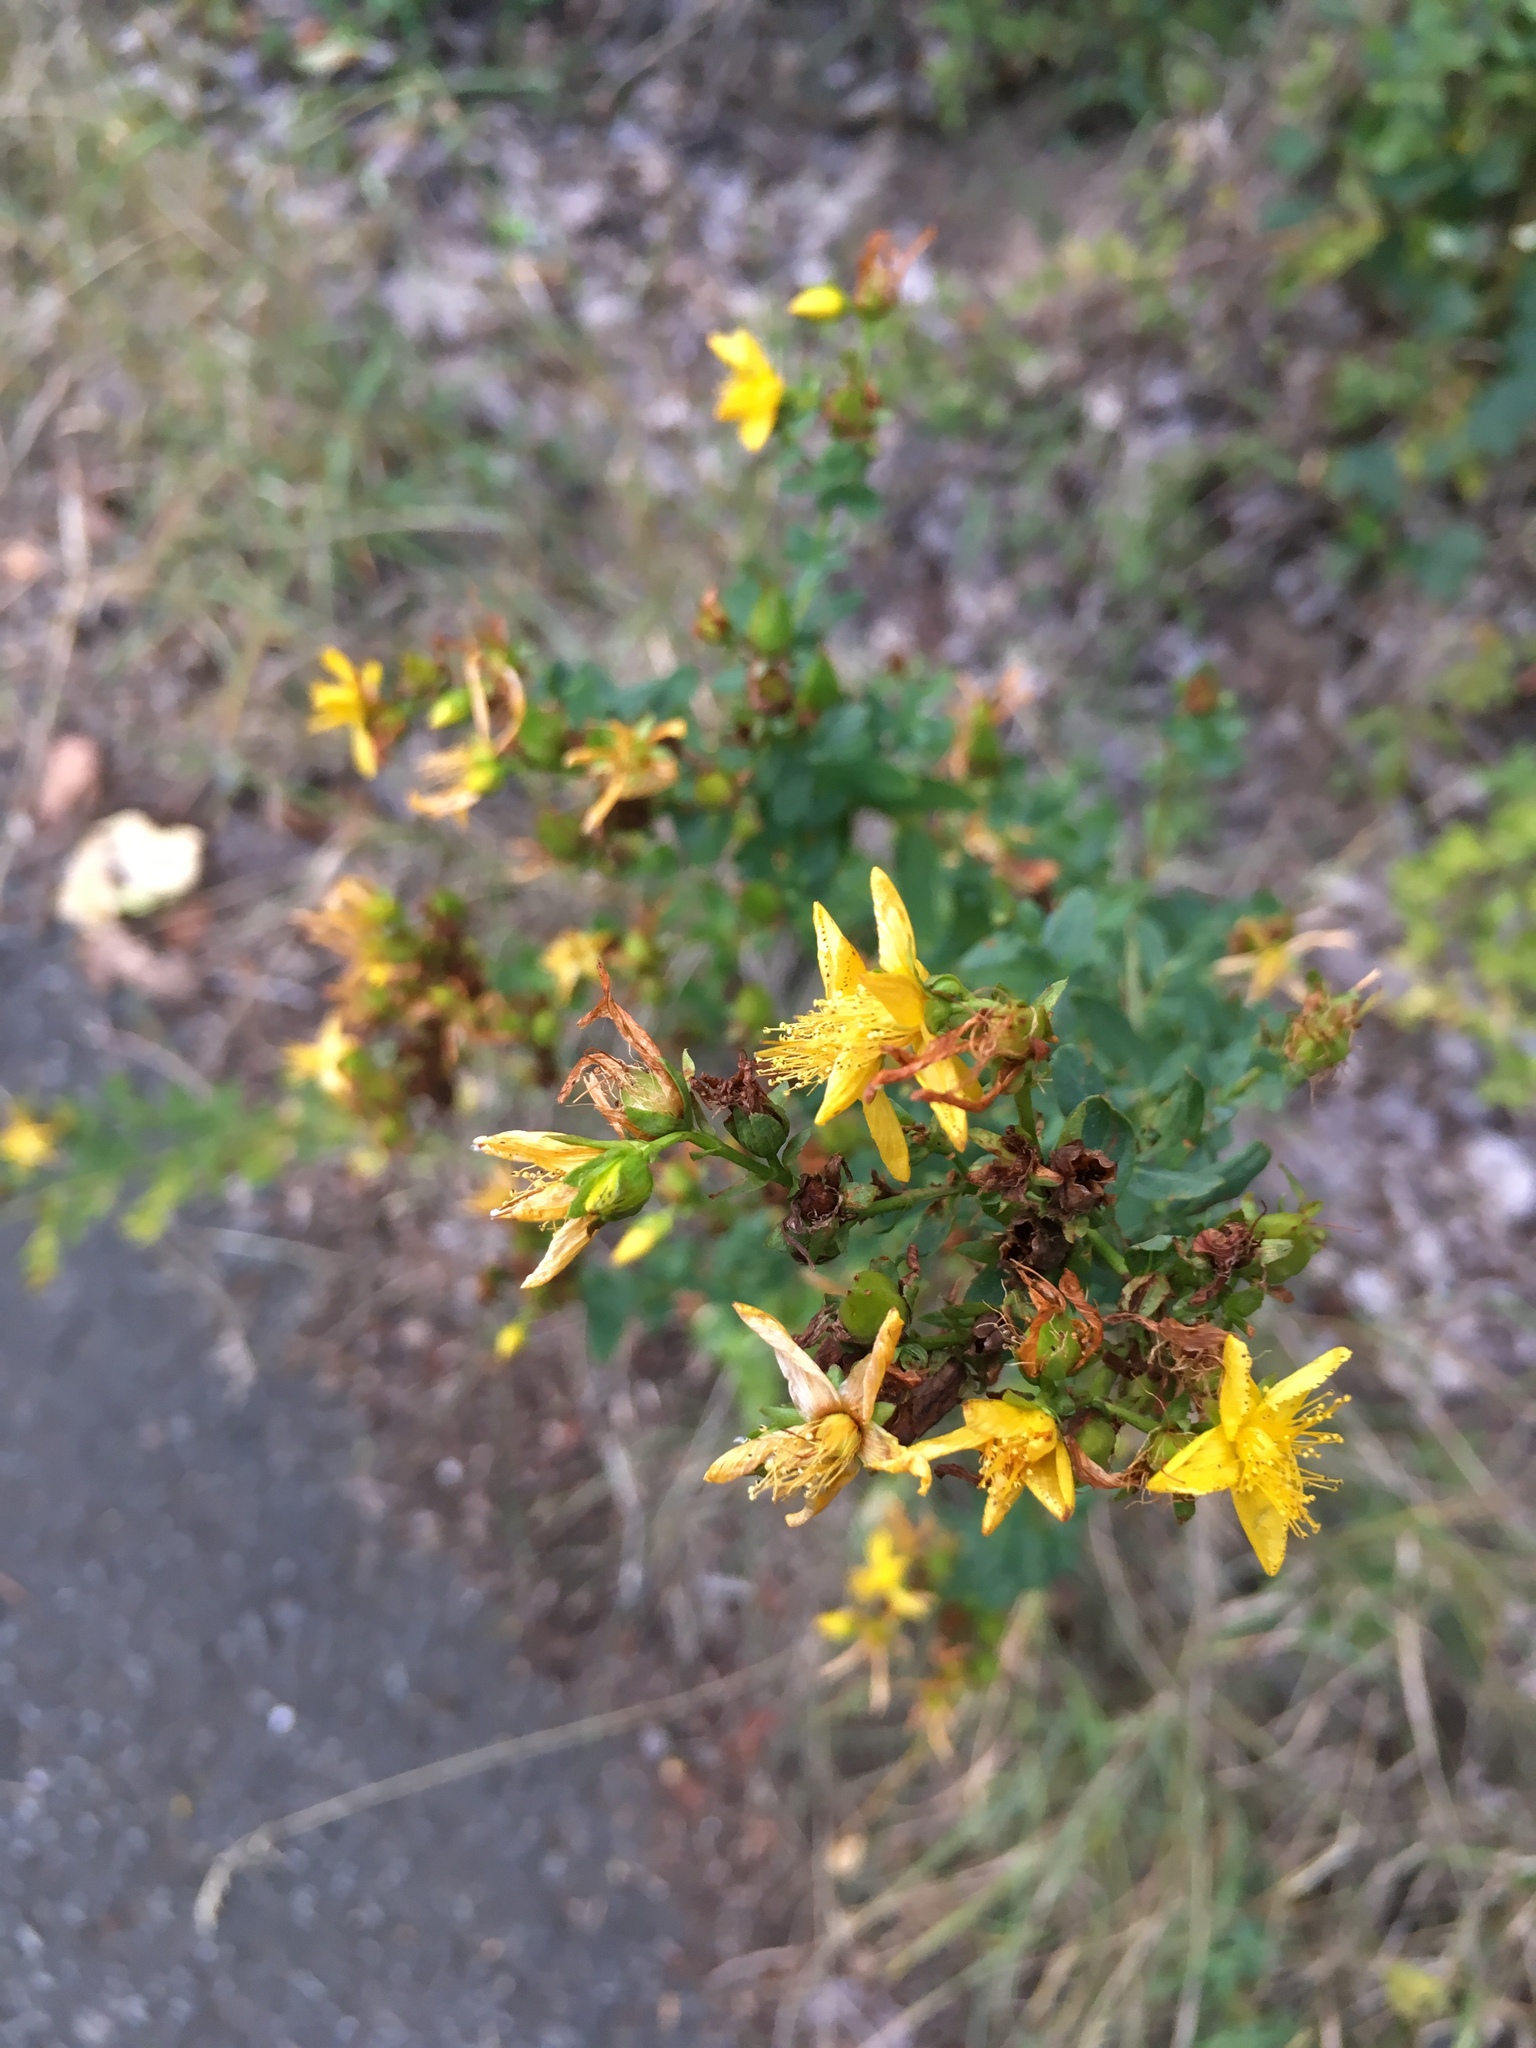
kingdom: Plantae
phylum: Tracheophyta
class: Magnoliopsida
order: Malpighiales
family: Hypericaceae
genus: Hypericum
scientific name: Hypericum perforatum
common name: Common st. johnswort
